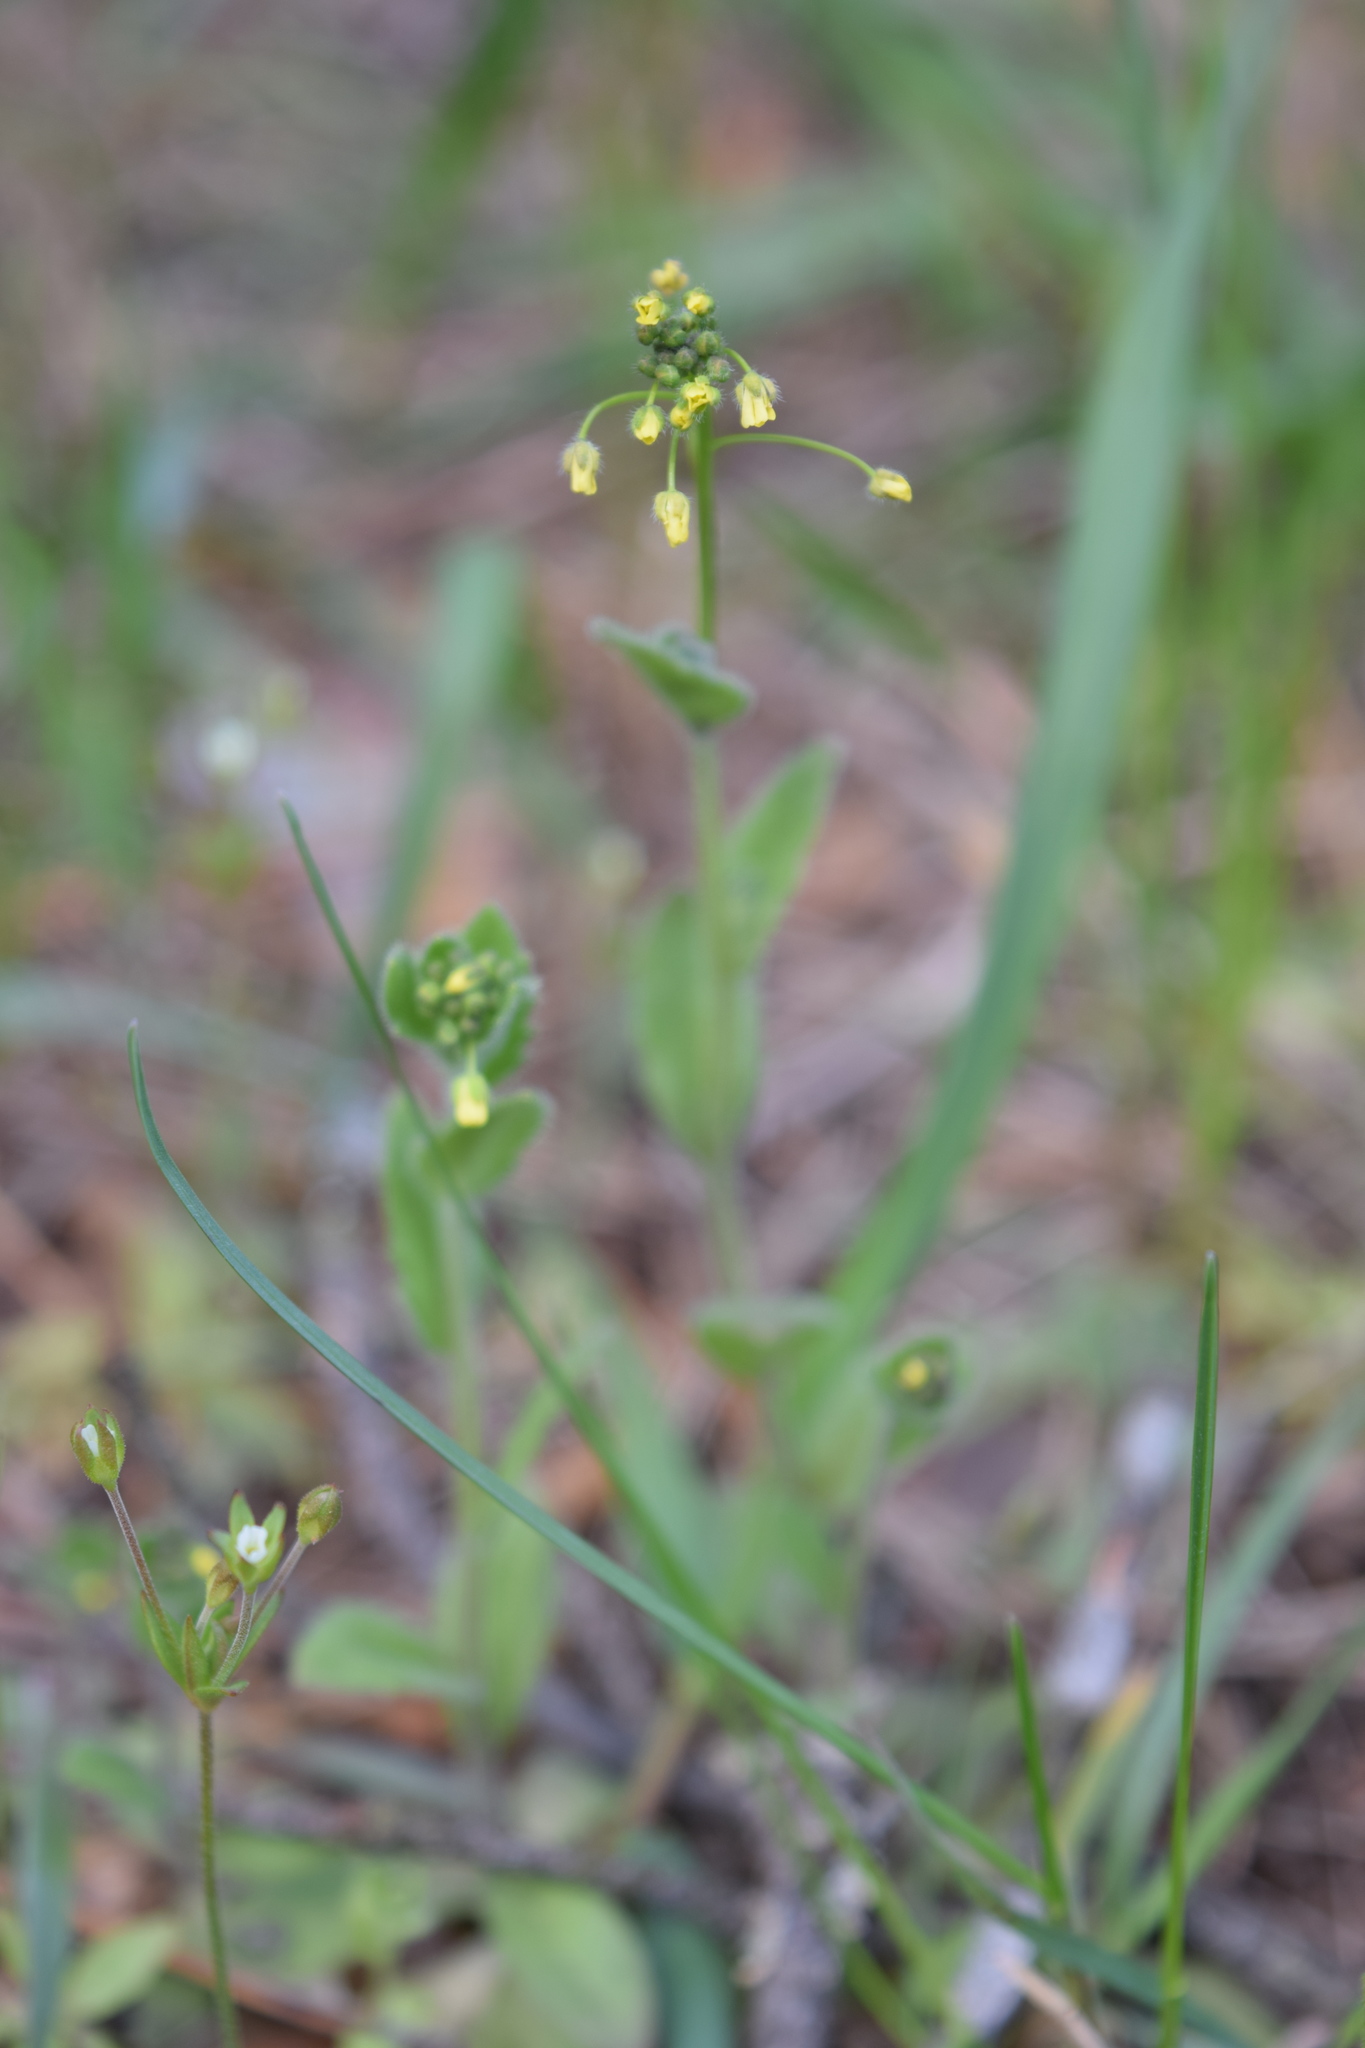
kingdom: Plantae
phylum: Tracheophyta
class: Magnoliopsida
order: Brassicales
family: Brassicaceae
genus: Draba
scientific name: Draba nemorosa
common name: Wood whitlow-grass
